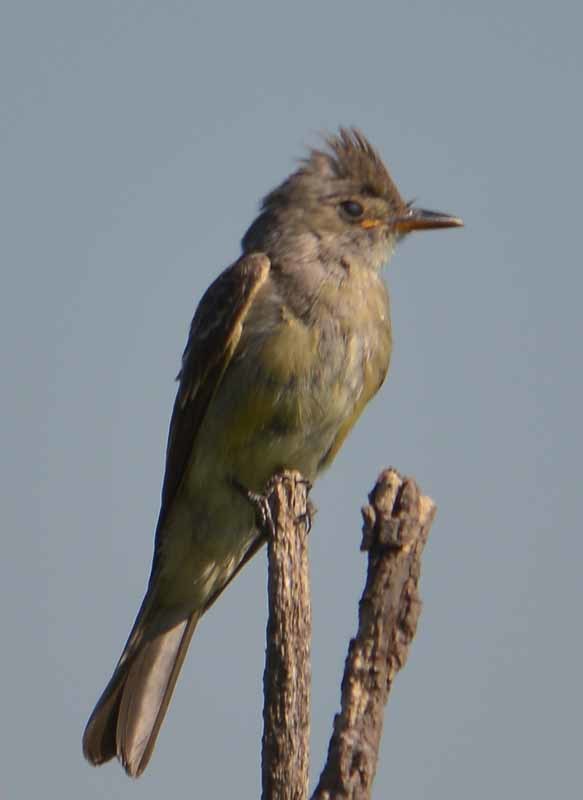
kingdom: Animalia
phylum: Chordata
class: Aves
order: Passeriformes
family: Tyrannidae
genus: Contopus
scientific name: Contopus pertinax
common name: Greater pewee
